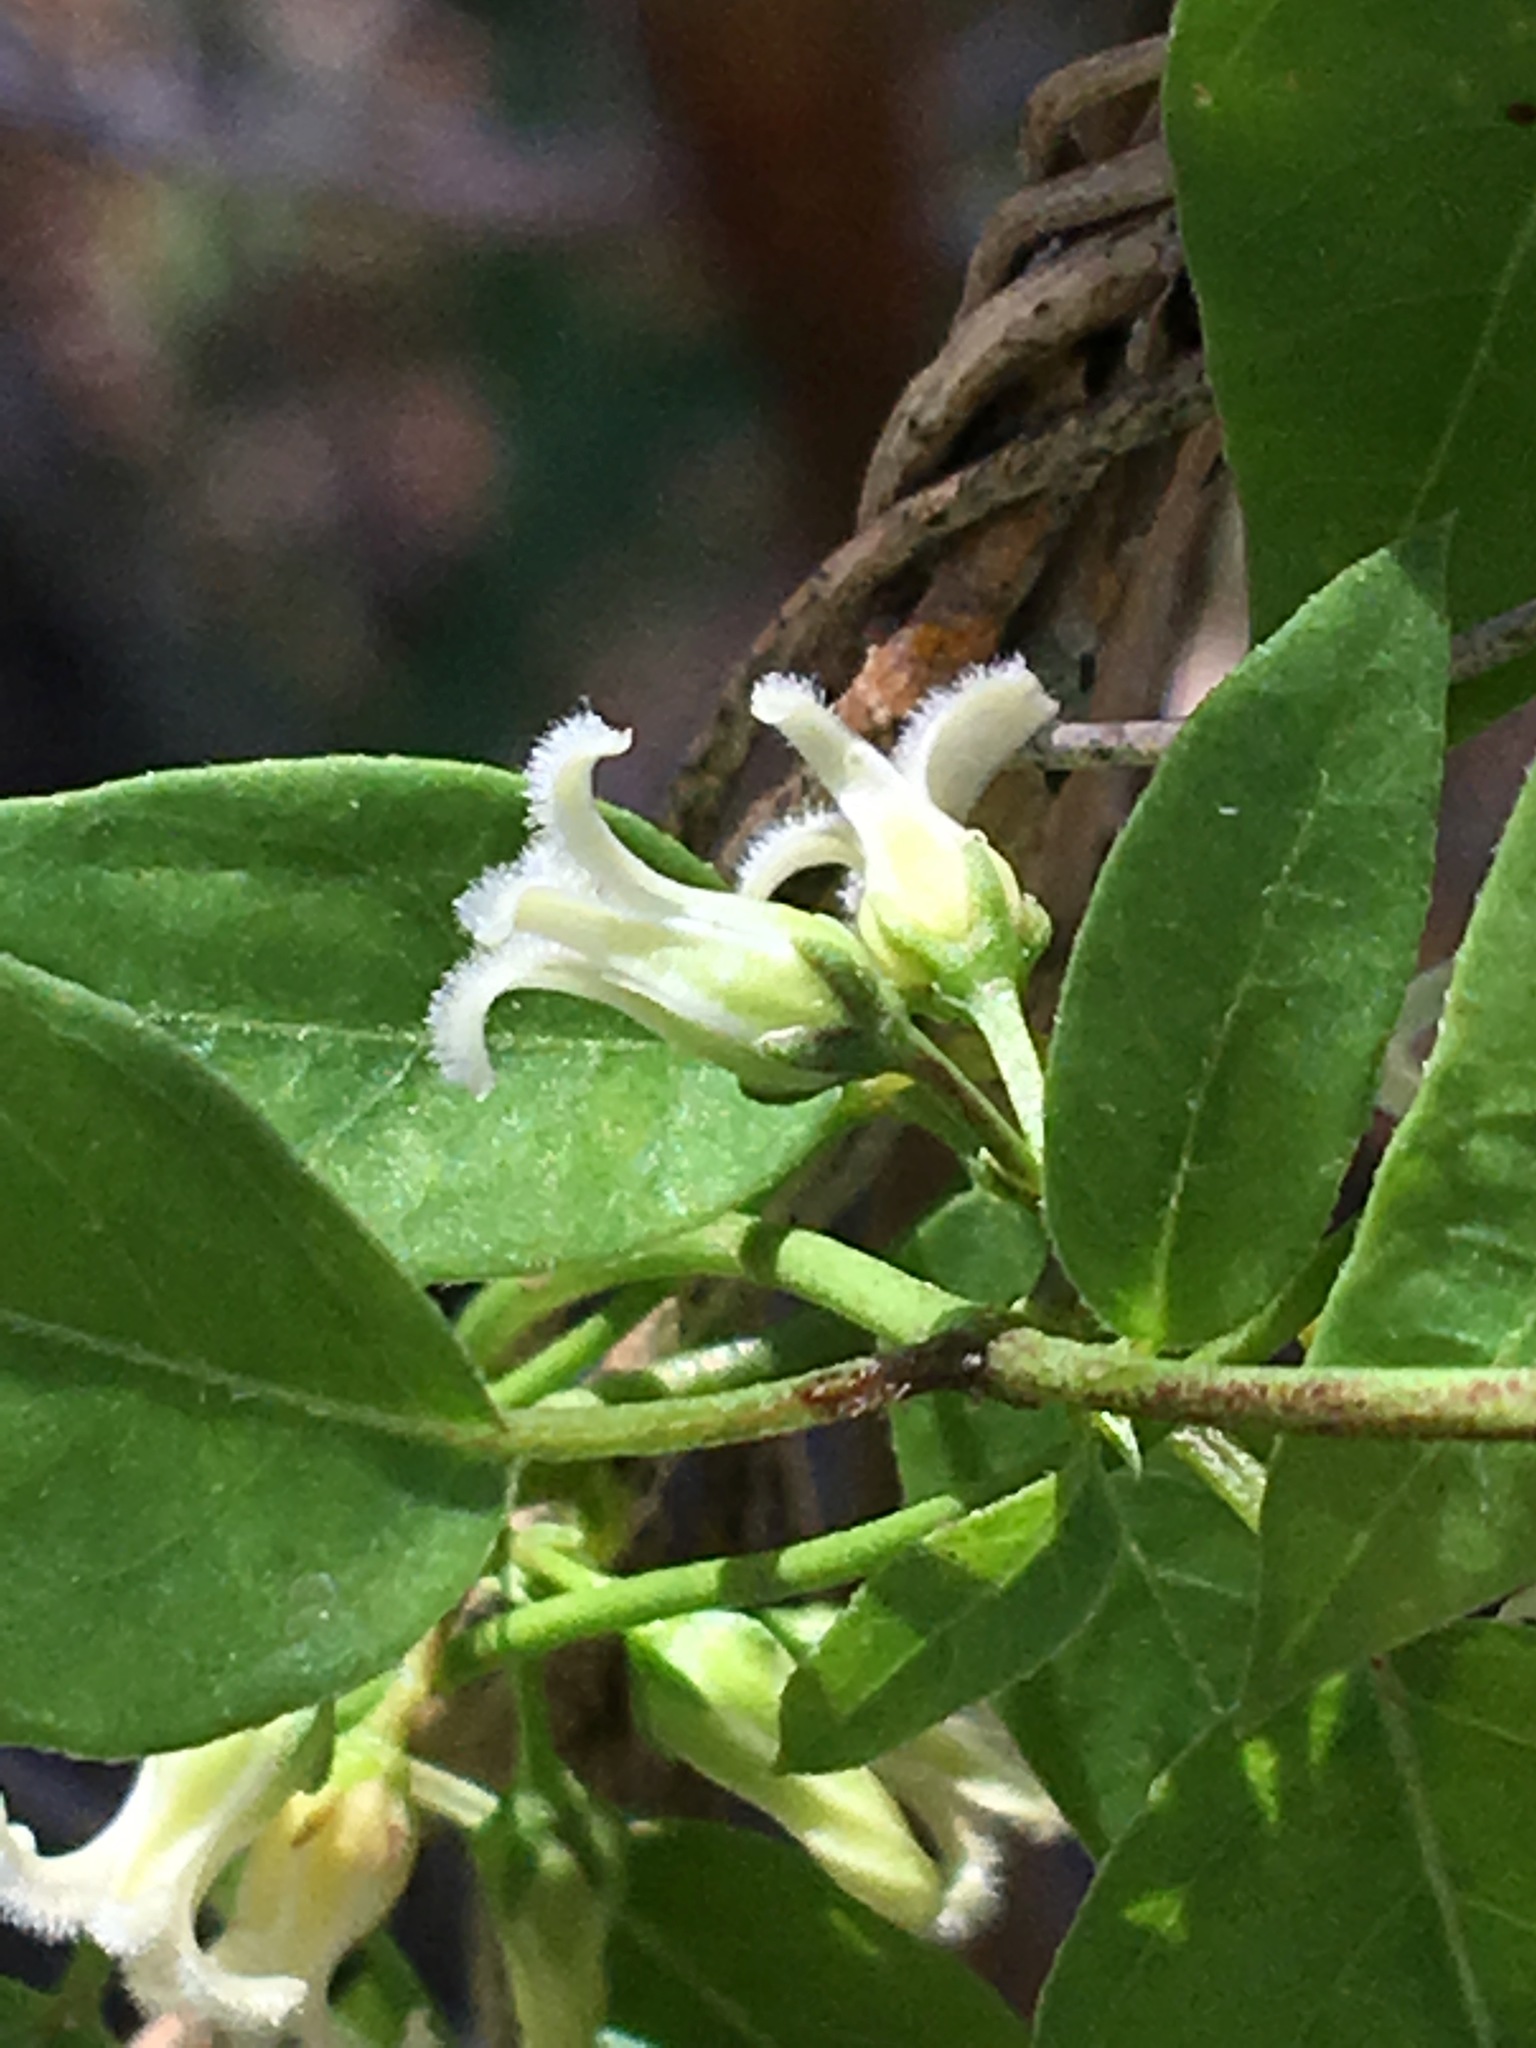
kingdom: Plantae
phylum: Tracheophyta
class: Magnoliopsida
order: Gentianales
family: Apocynaceae
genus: Metastelma
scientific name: Metastelma barbigerum
